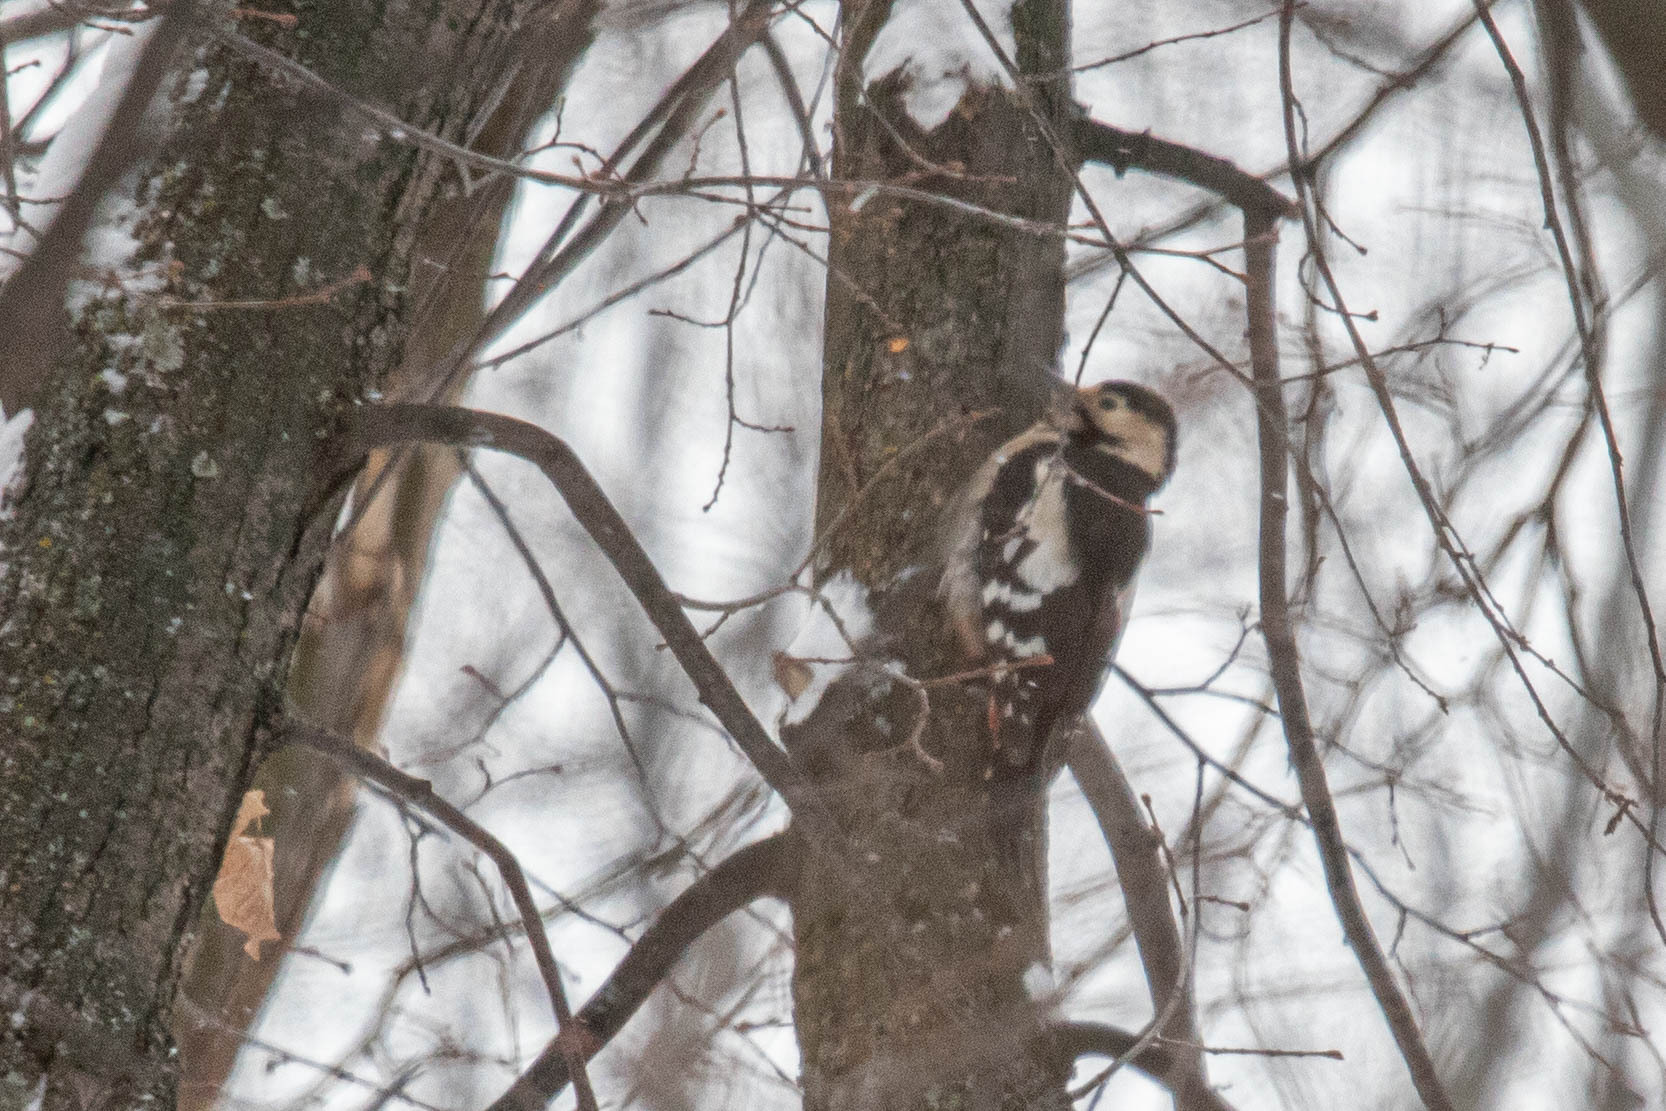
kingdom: Animalia
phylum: Chordata
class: Aves
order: Piciformes
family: Picidae
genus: Dendrocopos
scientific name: Dendrocopos syriacus
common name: Syrian woodpecker
